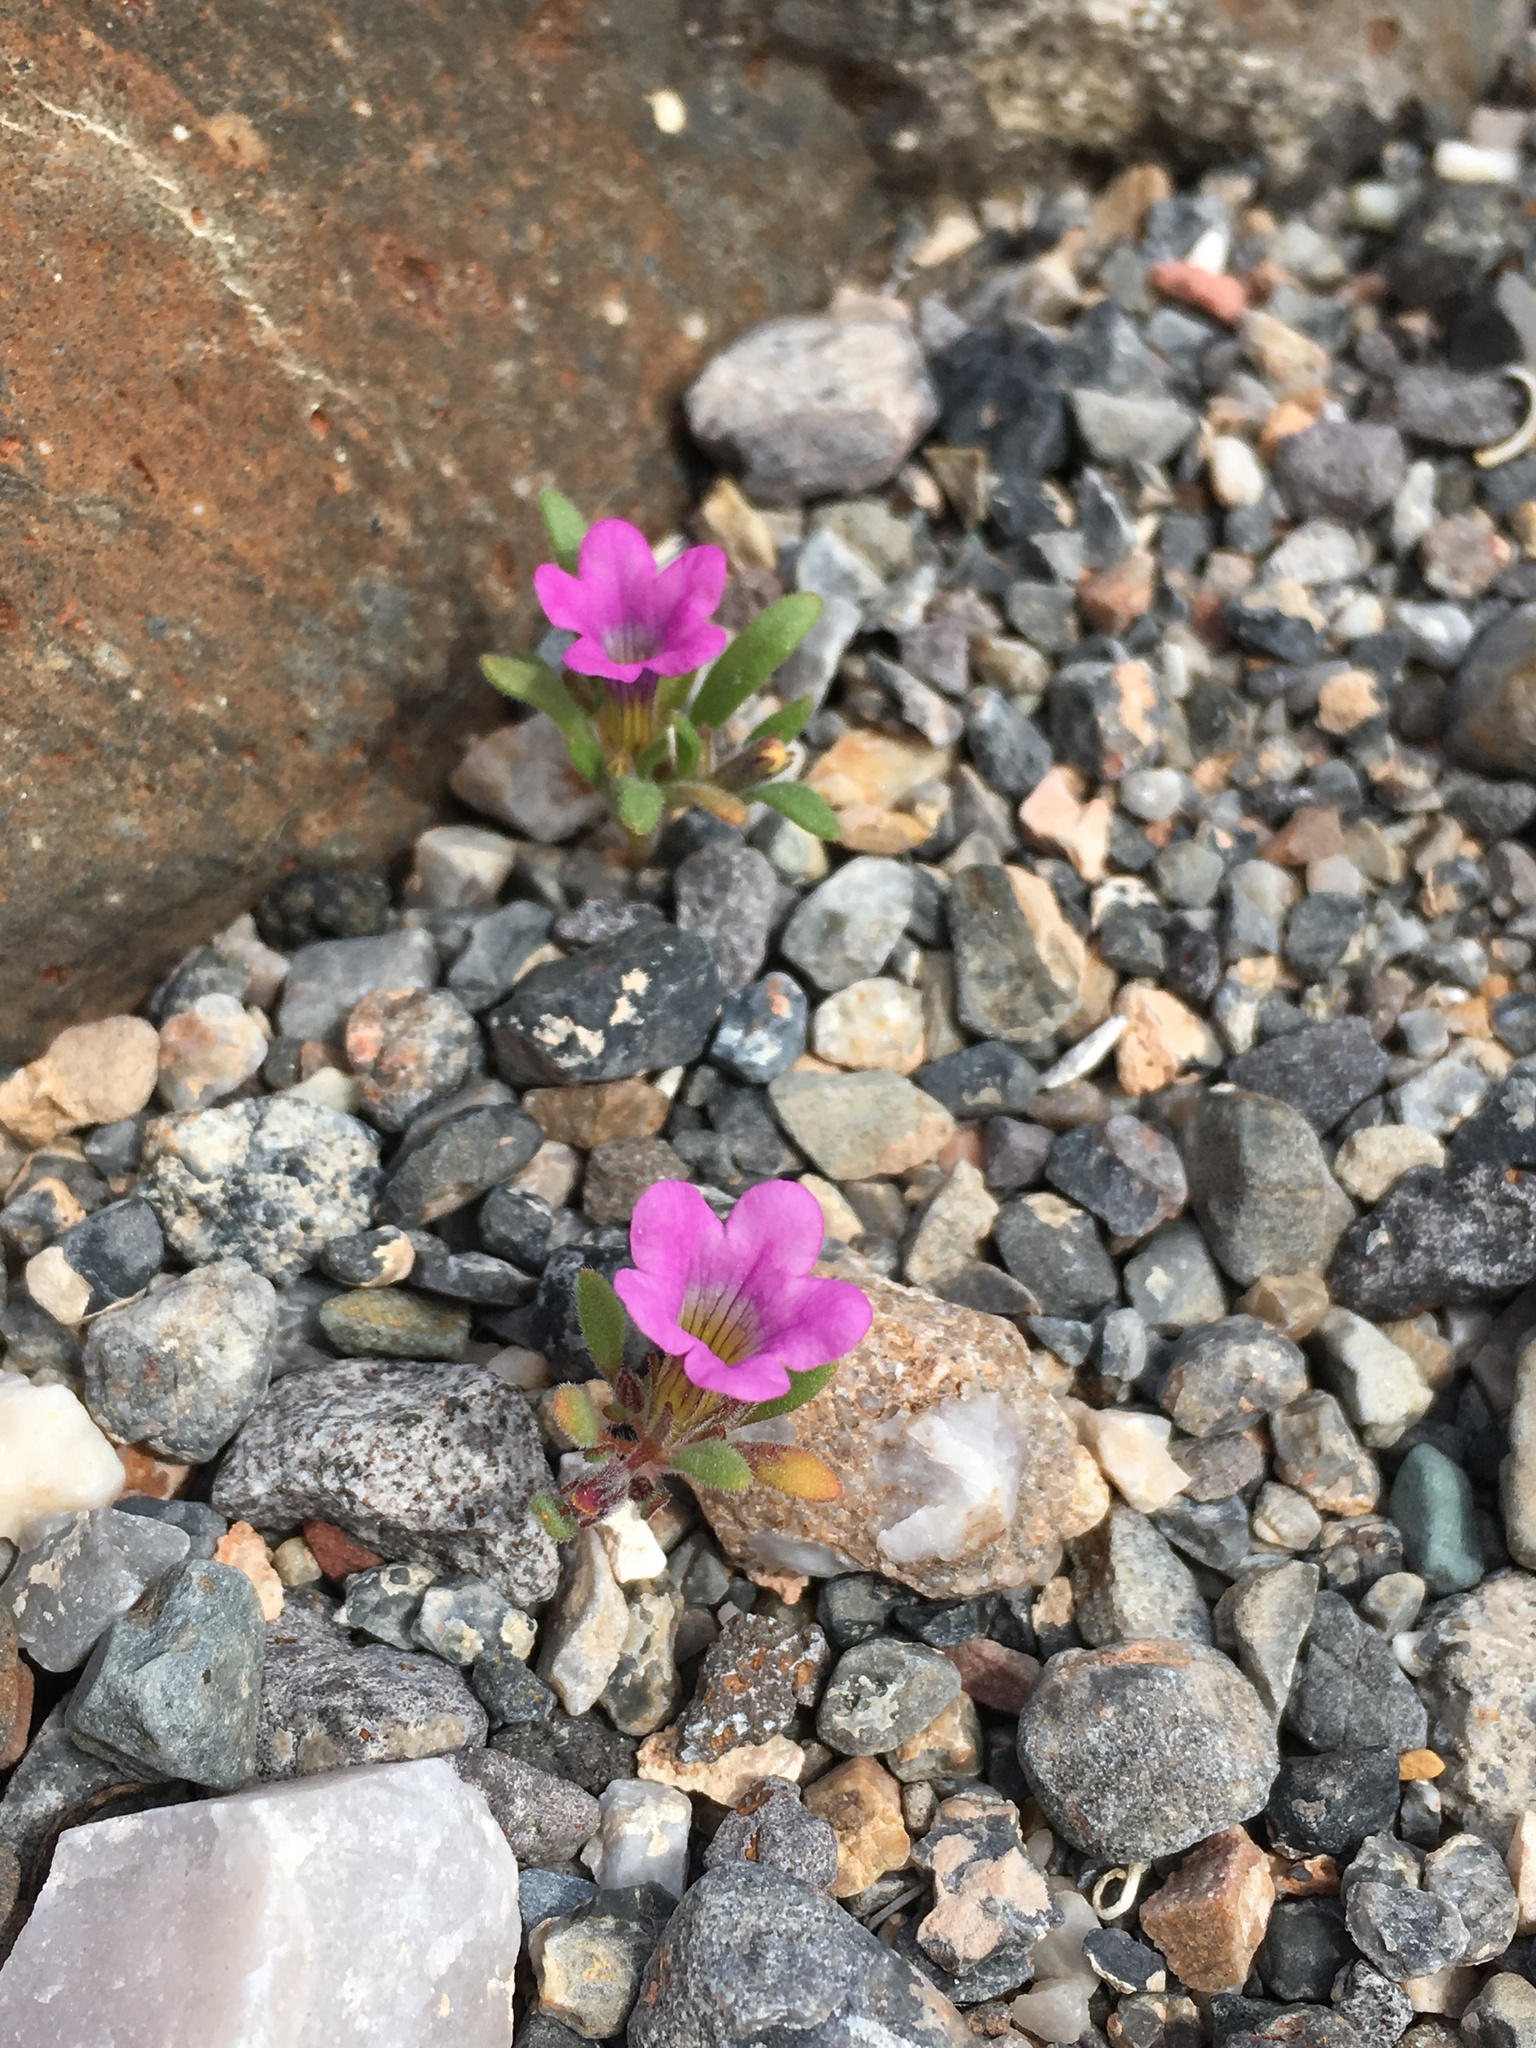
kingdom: Plantae
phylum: Tracheophyta
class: Magnoliopsida
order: Boraginales
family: Namaceae
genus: Nama
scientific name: Nama demissa
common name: Leafy nama
